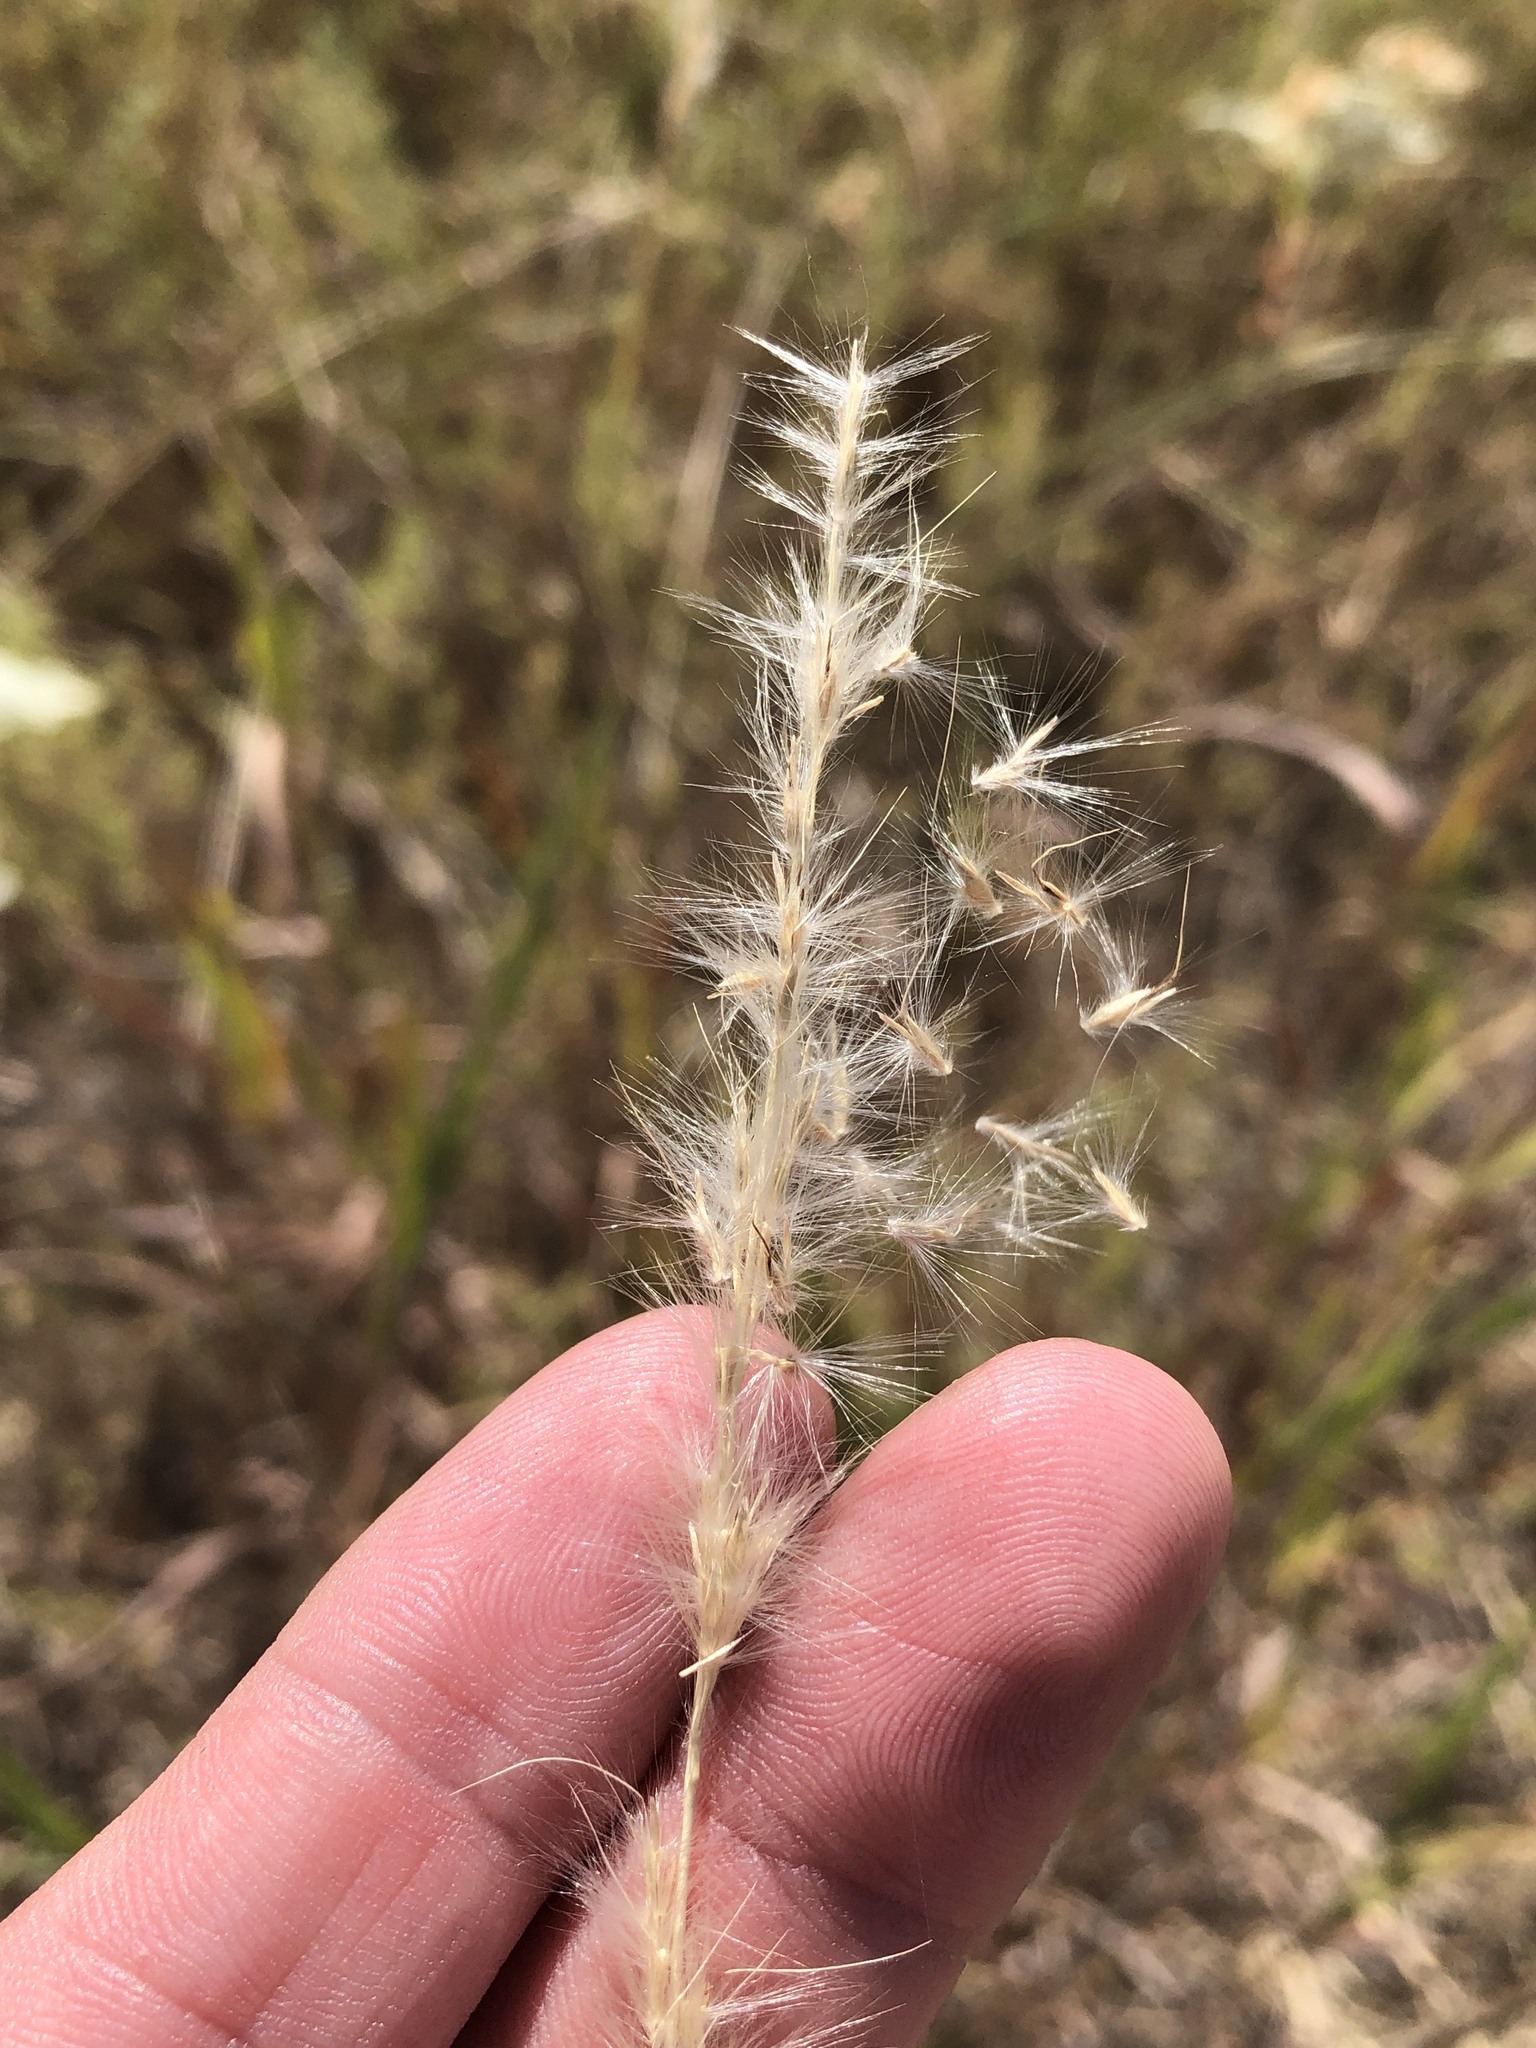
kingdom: Plantae
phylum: Tracheophyta
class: Liliopsida
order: Poales
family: Poaceae
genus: Bothriochloa
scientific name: Bothriochloa torreyana
